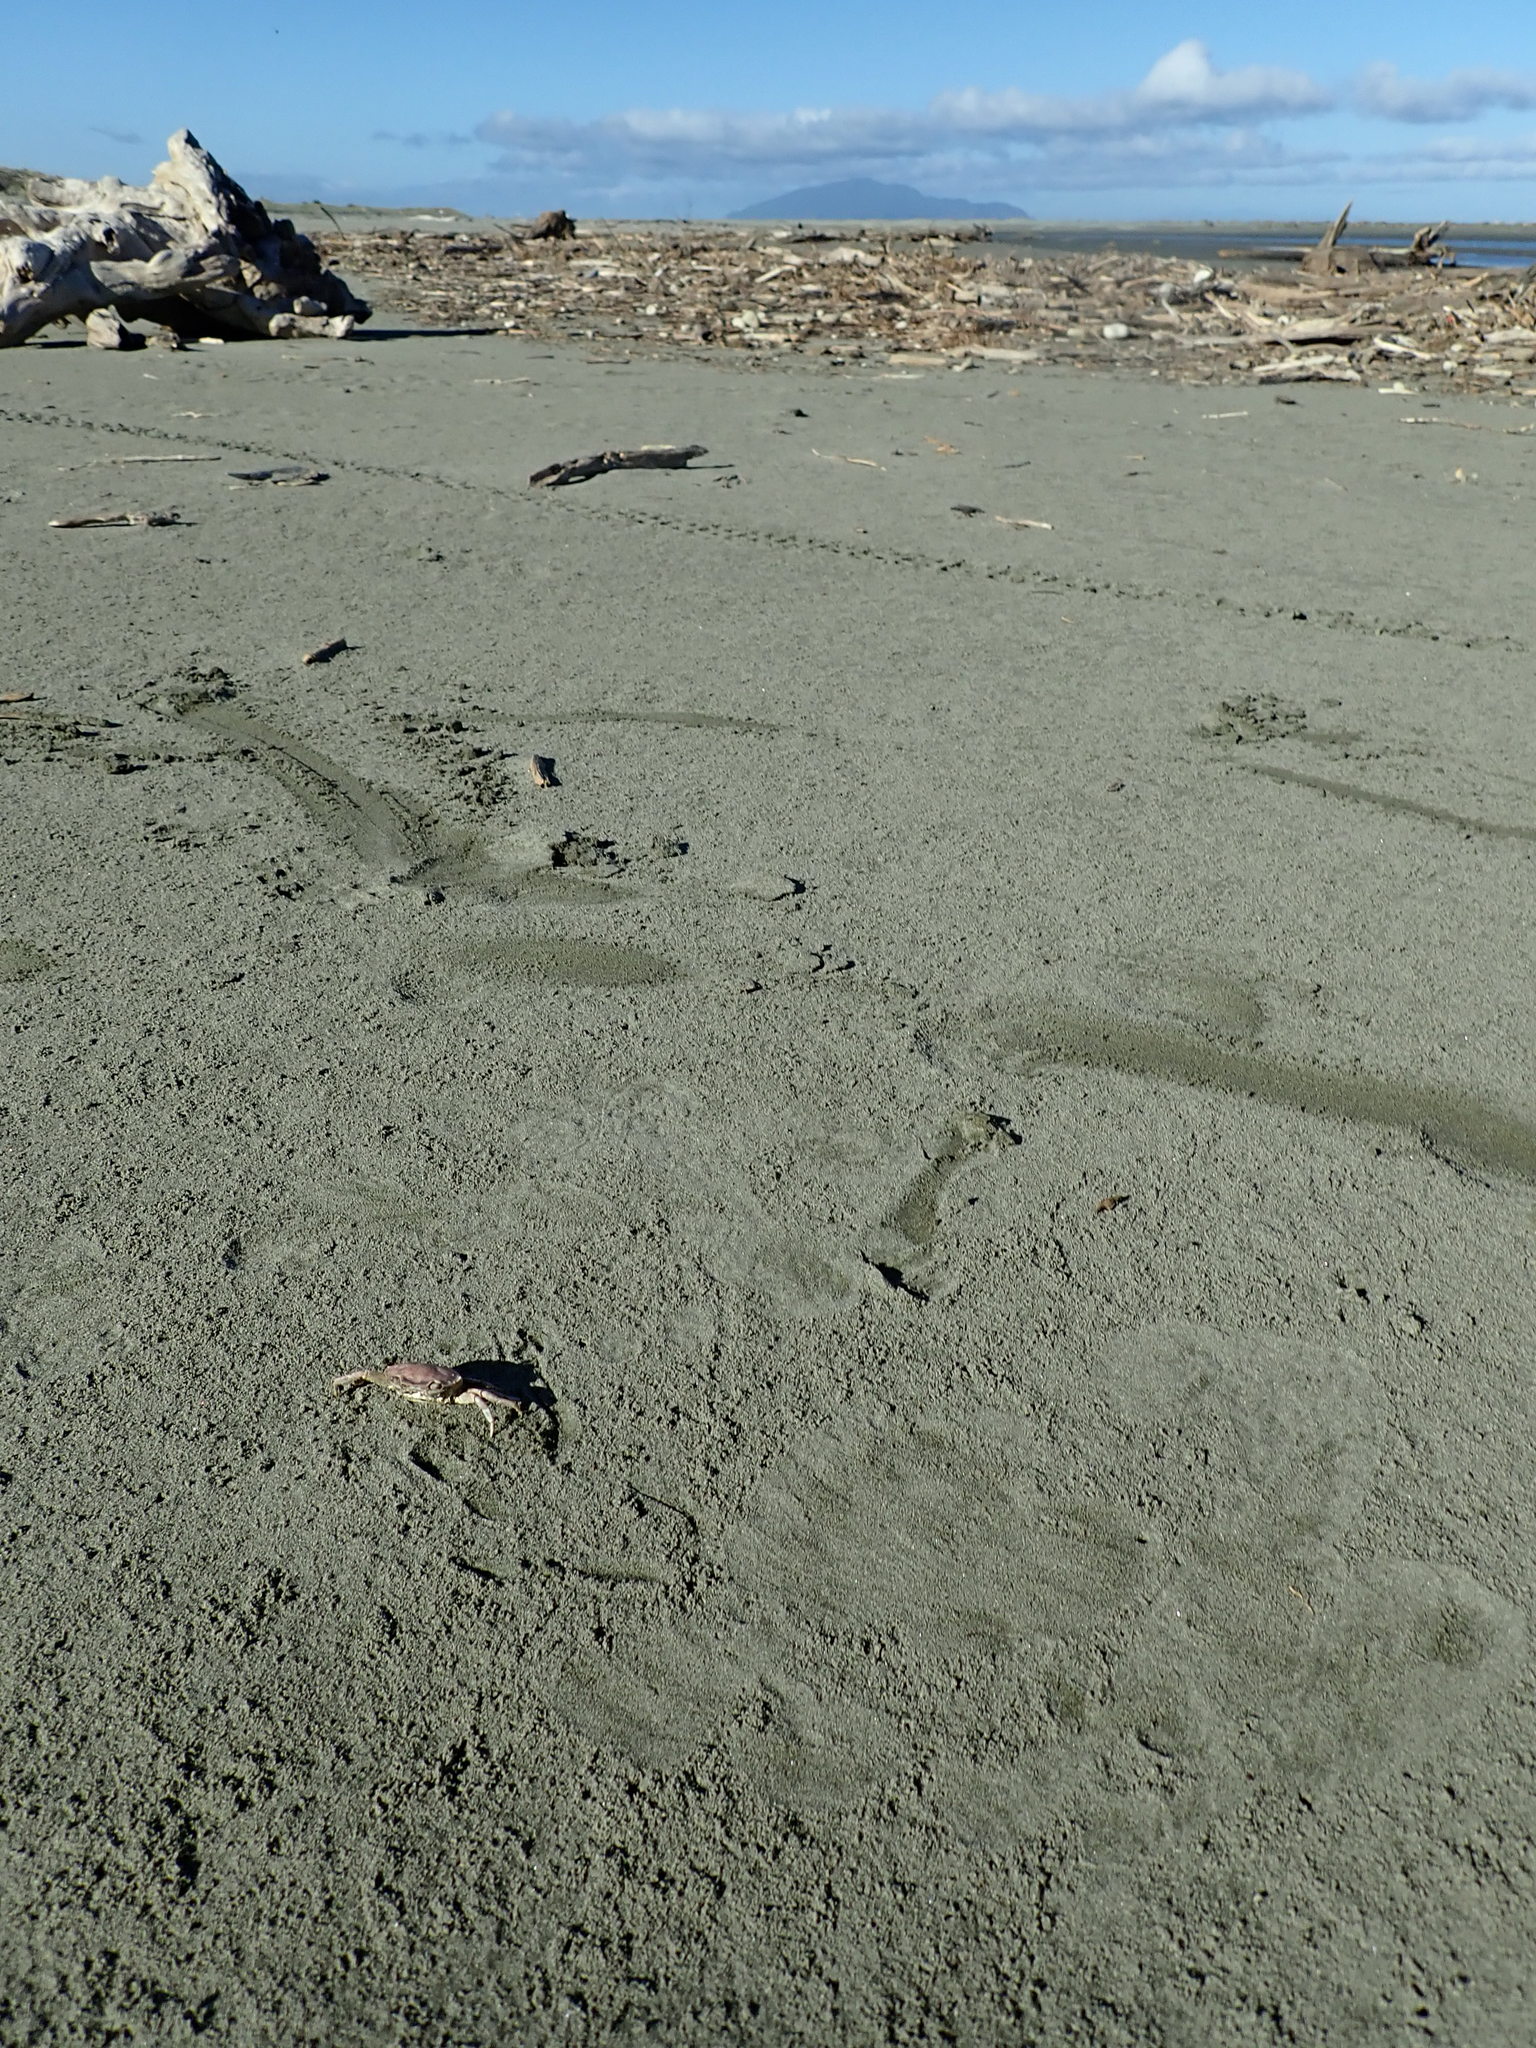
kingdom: Animalia
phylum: Arthropoda
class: Malacostraca
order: Decapoda
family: Varunidae
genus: Hemigrapsus
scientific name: Hemigrapsus crenulatus
